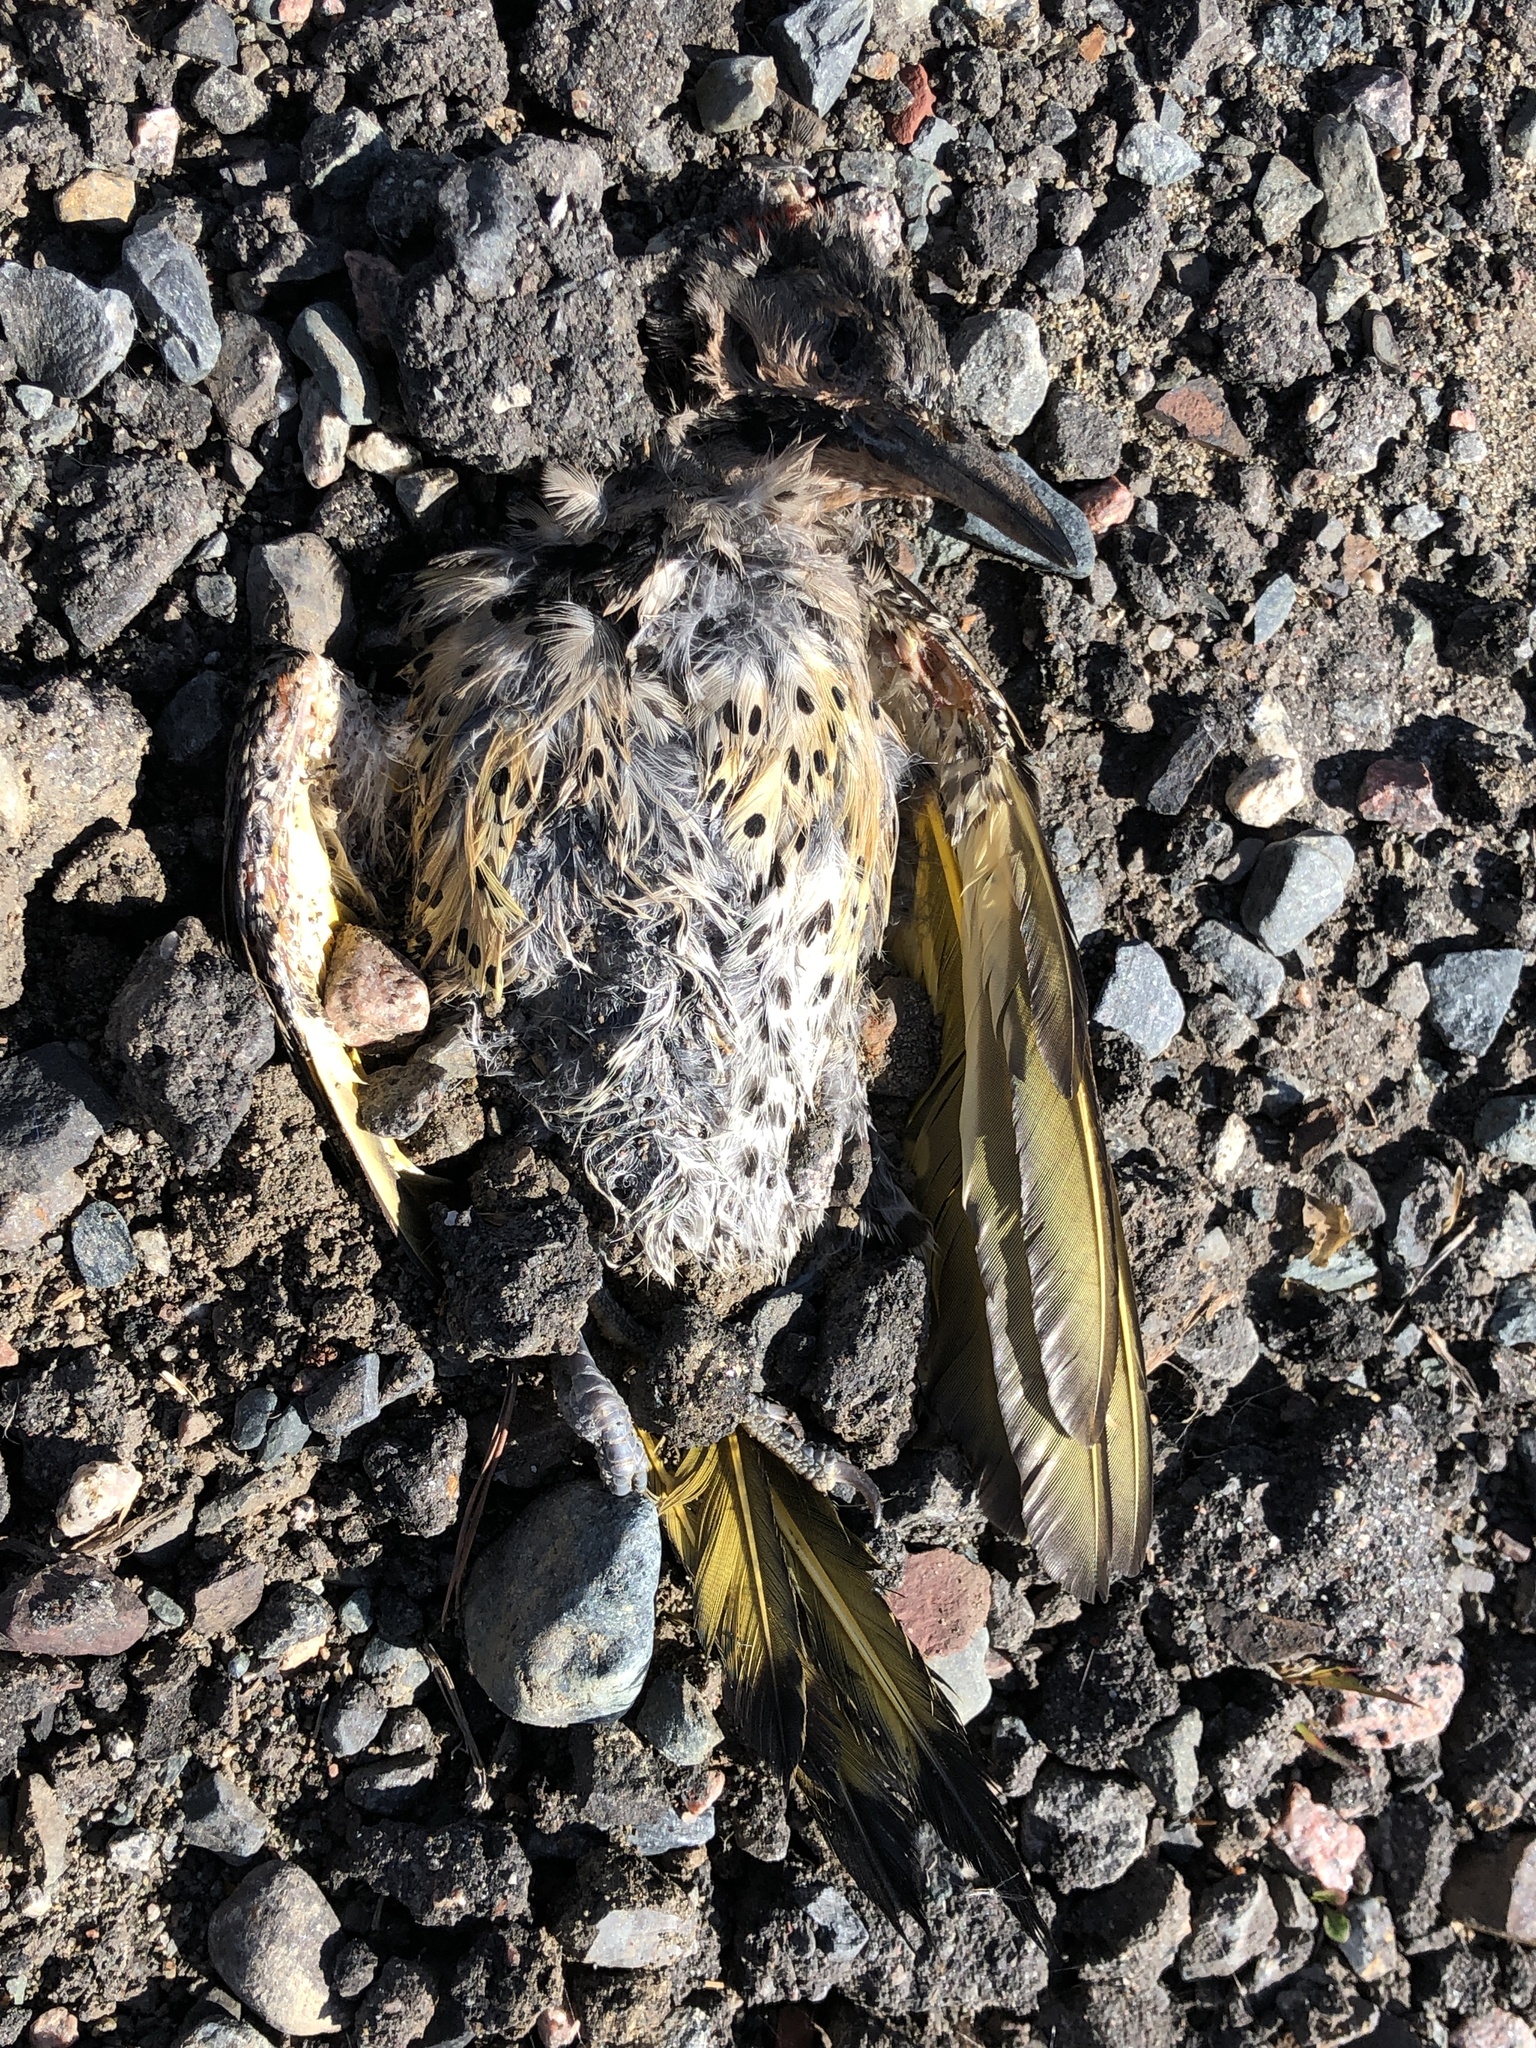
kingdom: Animalia
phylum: Chordata
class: Aves
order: Piciformes
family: Picidae
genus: Colaptes
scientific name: Colaptes auratus
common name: Northern flicker
